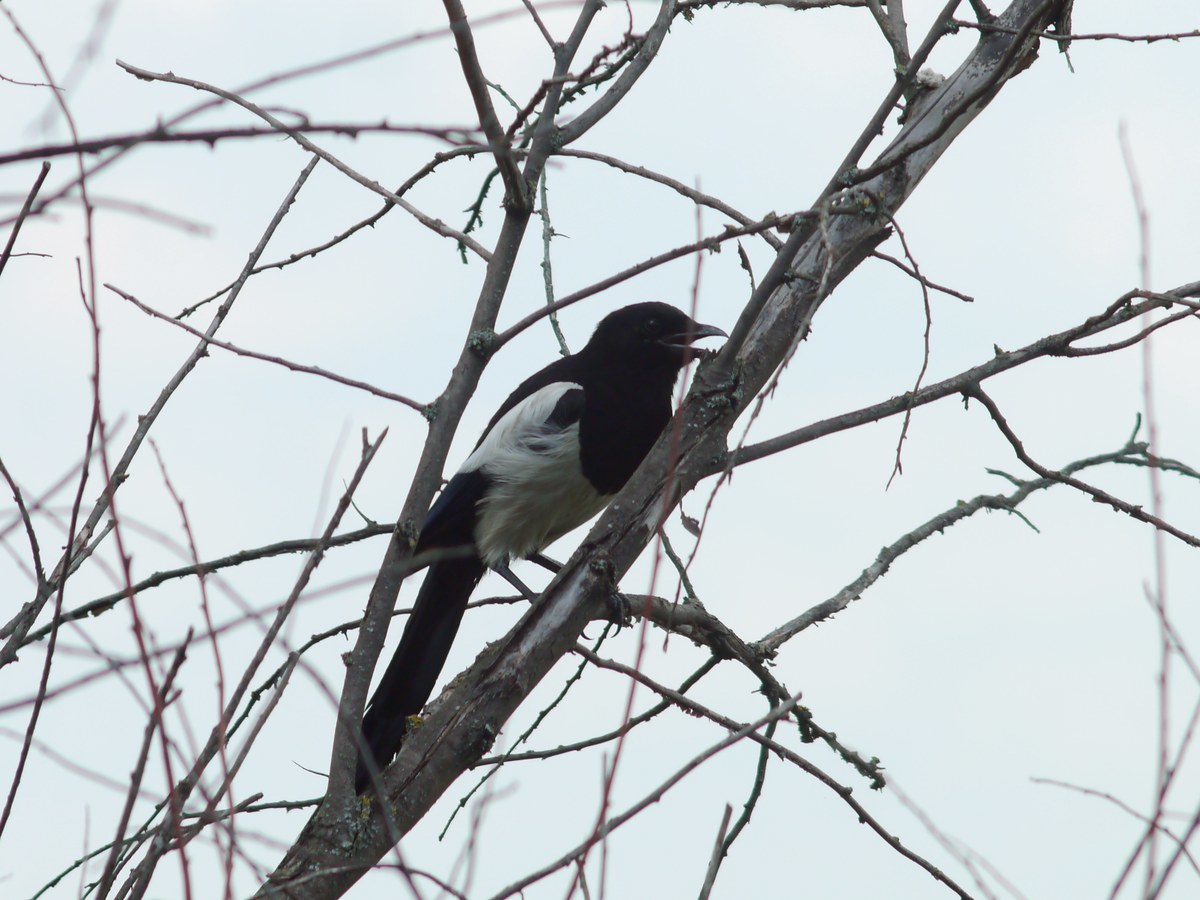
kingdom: Animalia
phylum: Chordata
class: Aves
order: Passeriformes
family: Corvidae
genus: Pica
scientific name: Pica pica
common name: Eurasian magpie
